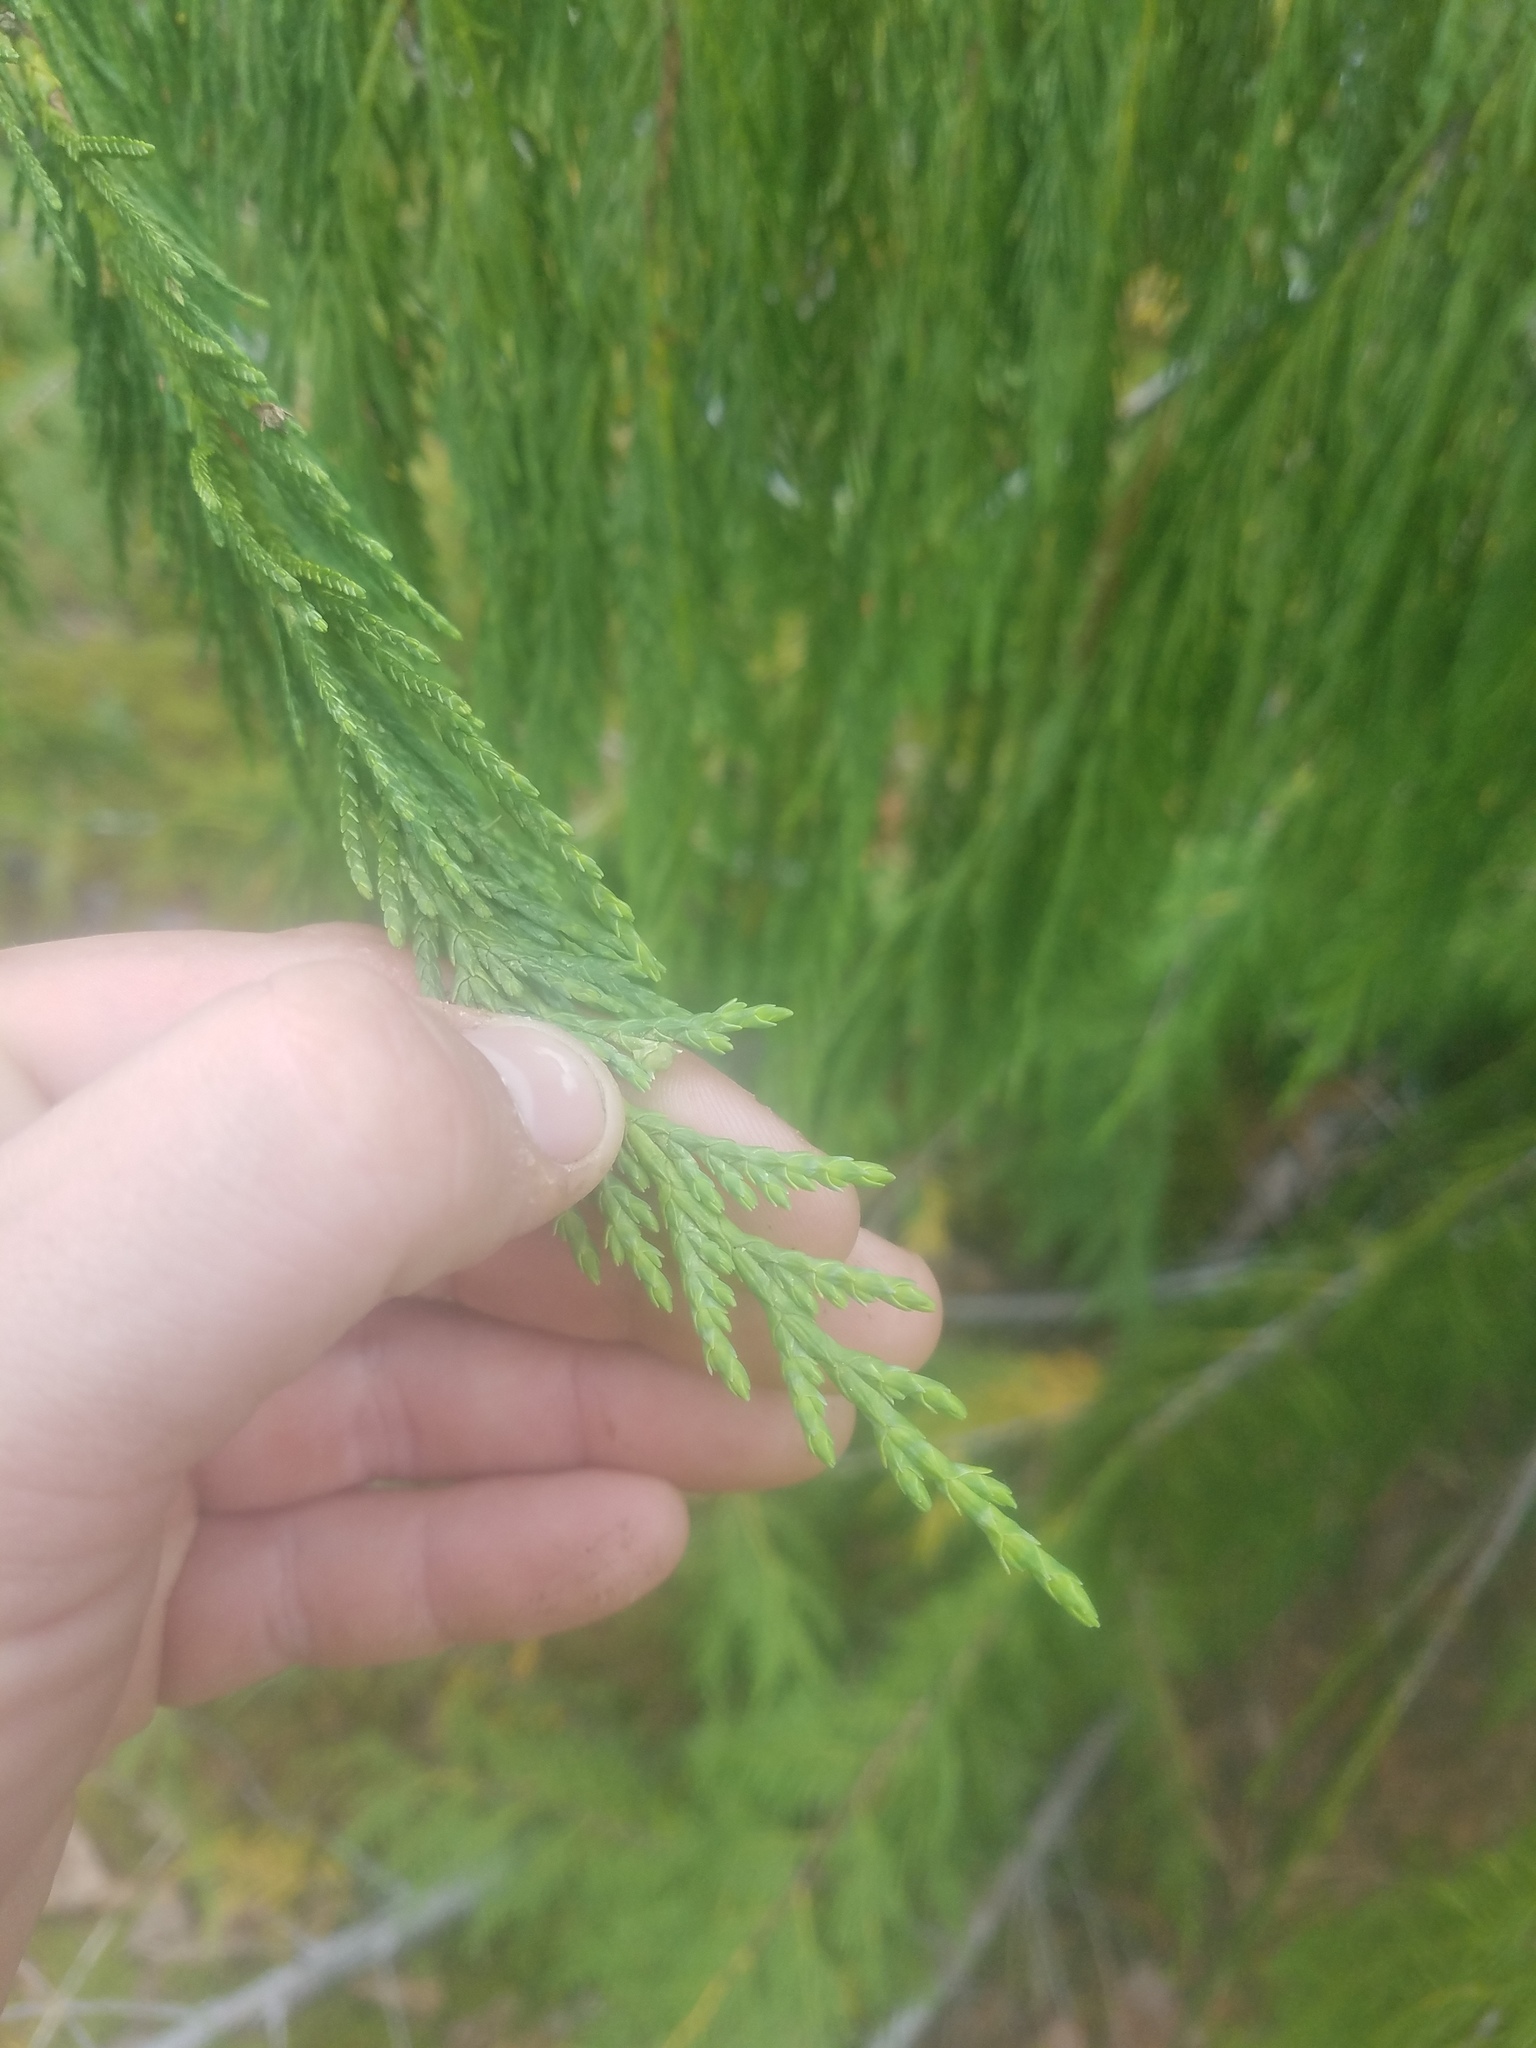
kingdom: Plantae
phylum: Tracheophyta
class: Pinopsida
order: Pinales
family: Cupressaceae
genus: Xanthocyparis
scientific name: Xanthocyparis nootkatensis
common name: Nootka cypress
